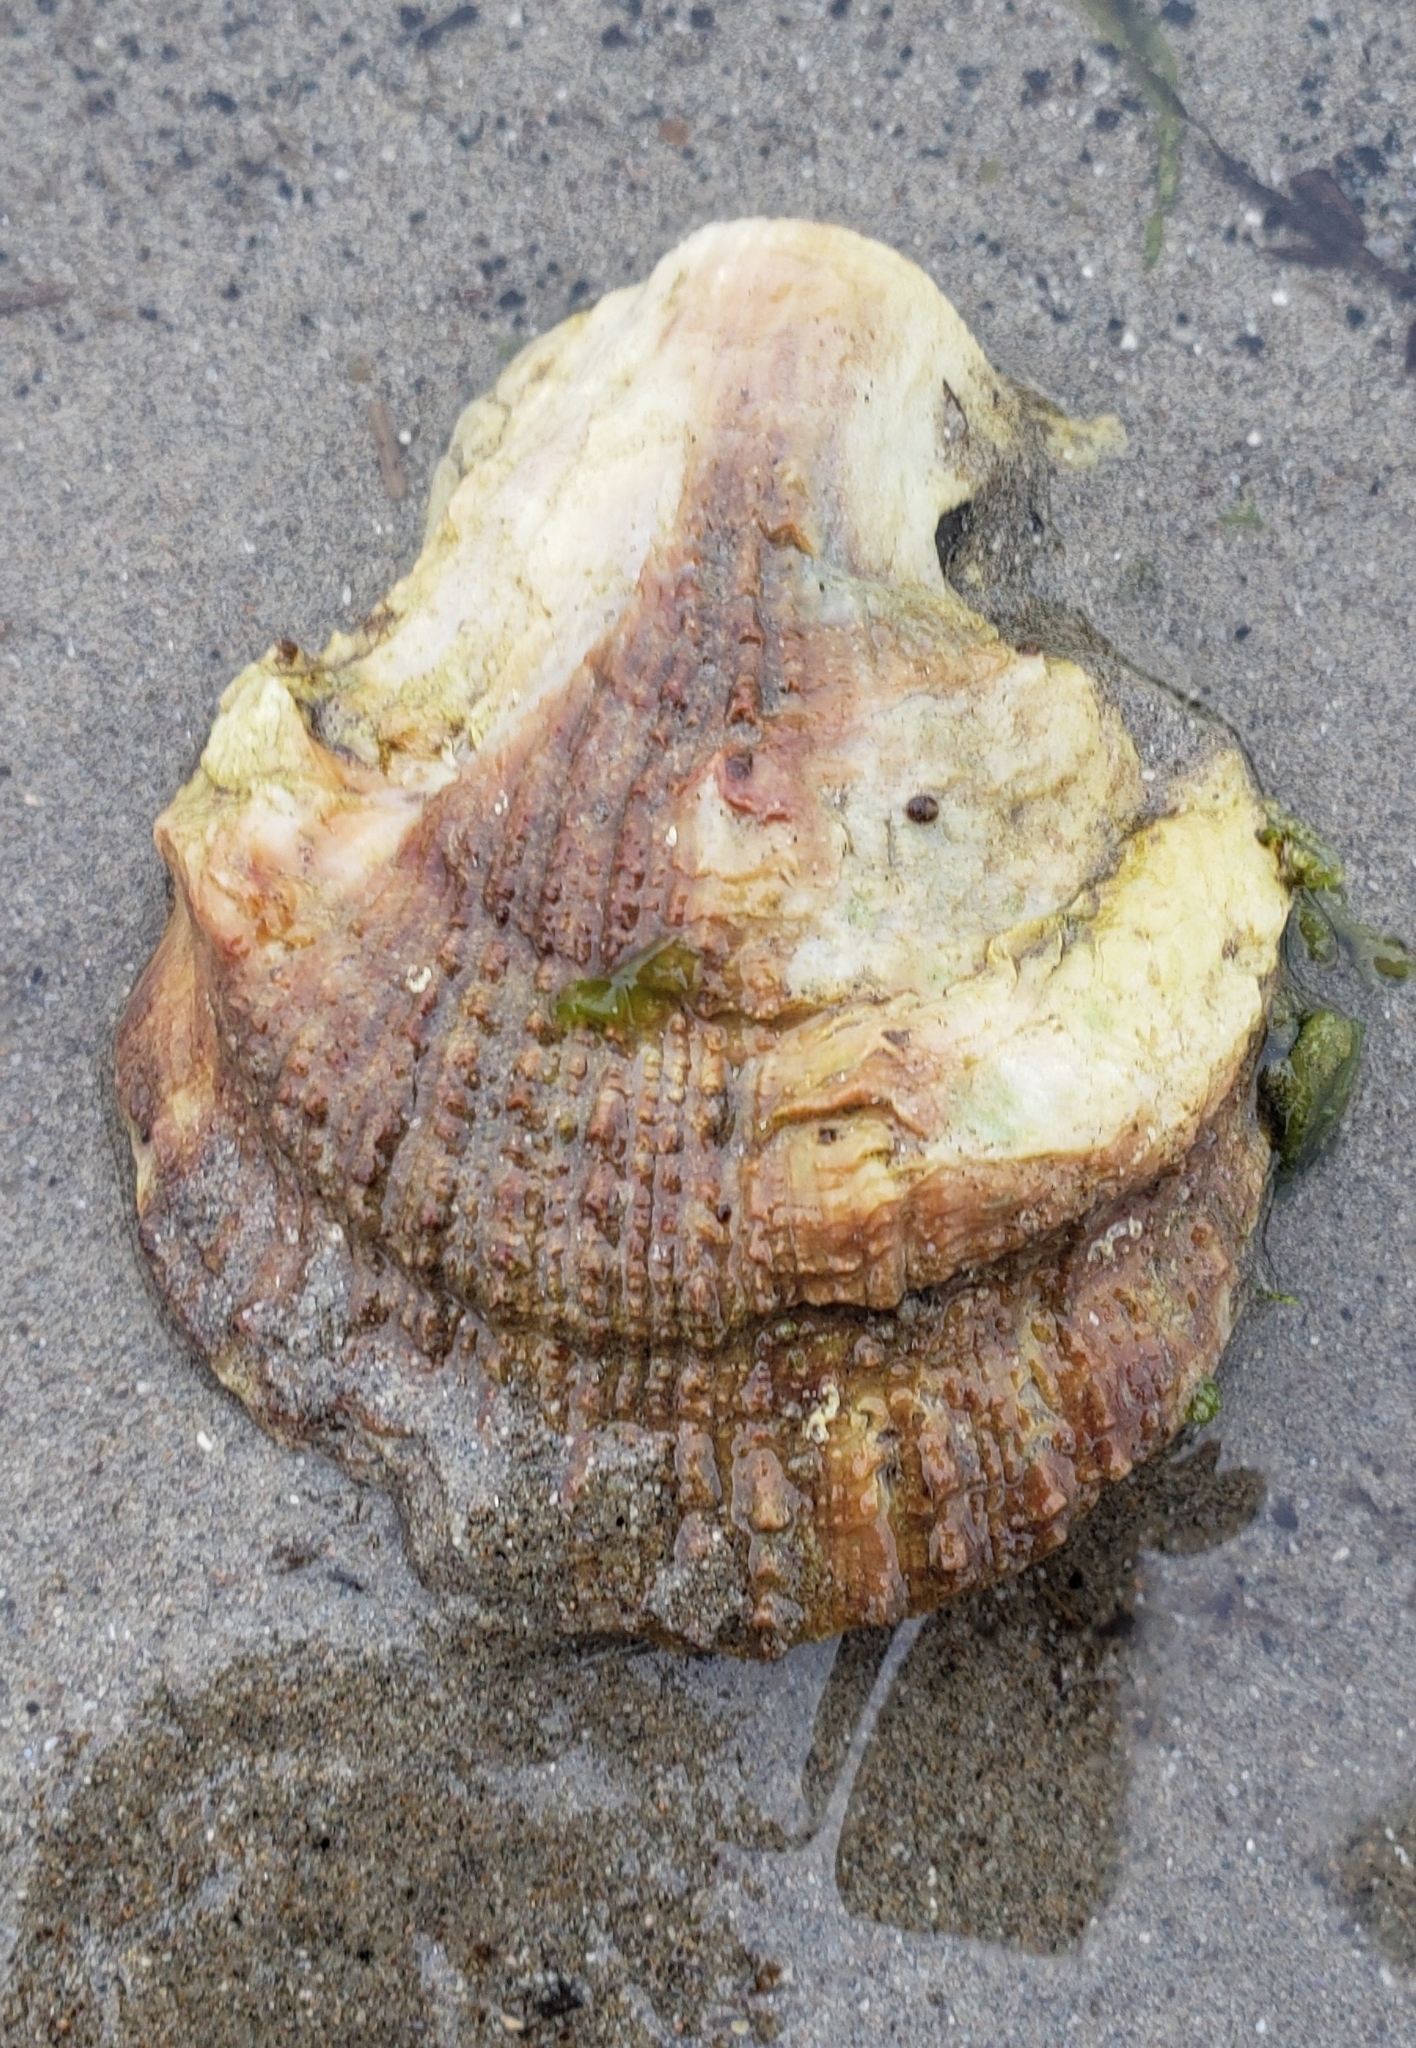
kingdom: Animalia
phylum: Mollusca
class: Bivalvia
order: Pectinida
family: Pectinidae
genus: Crassadoma
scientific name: Crassadoma gigantea
